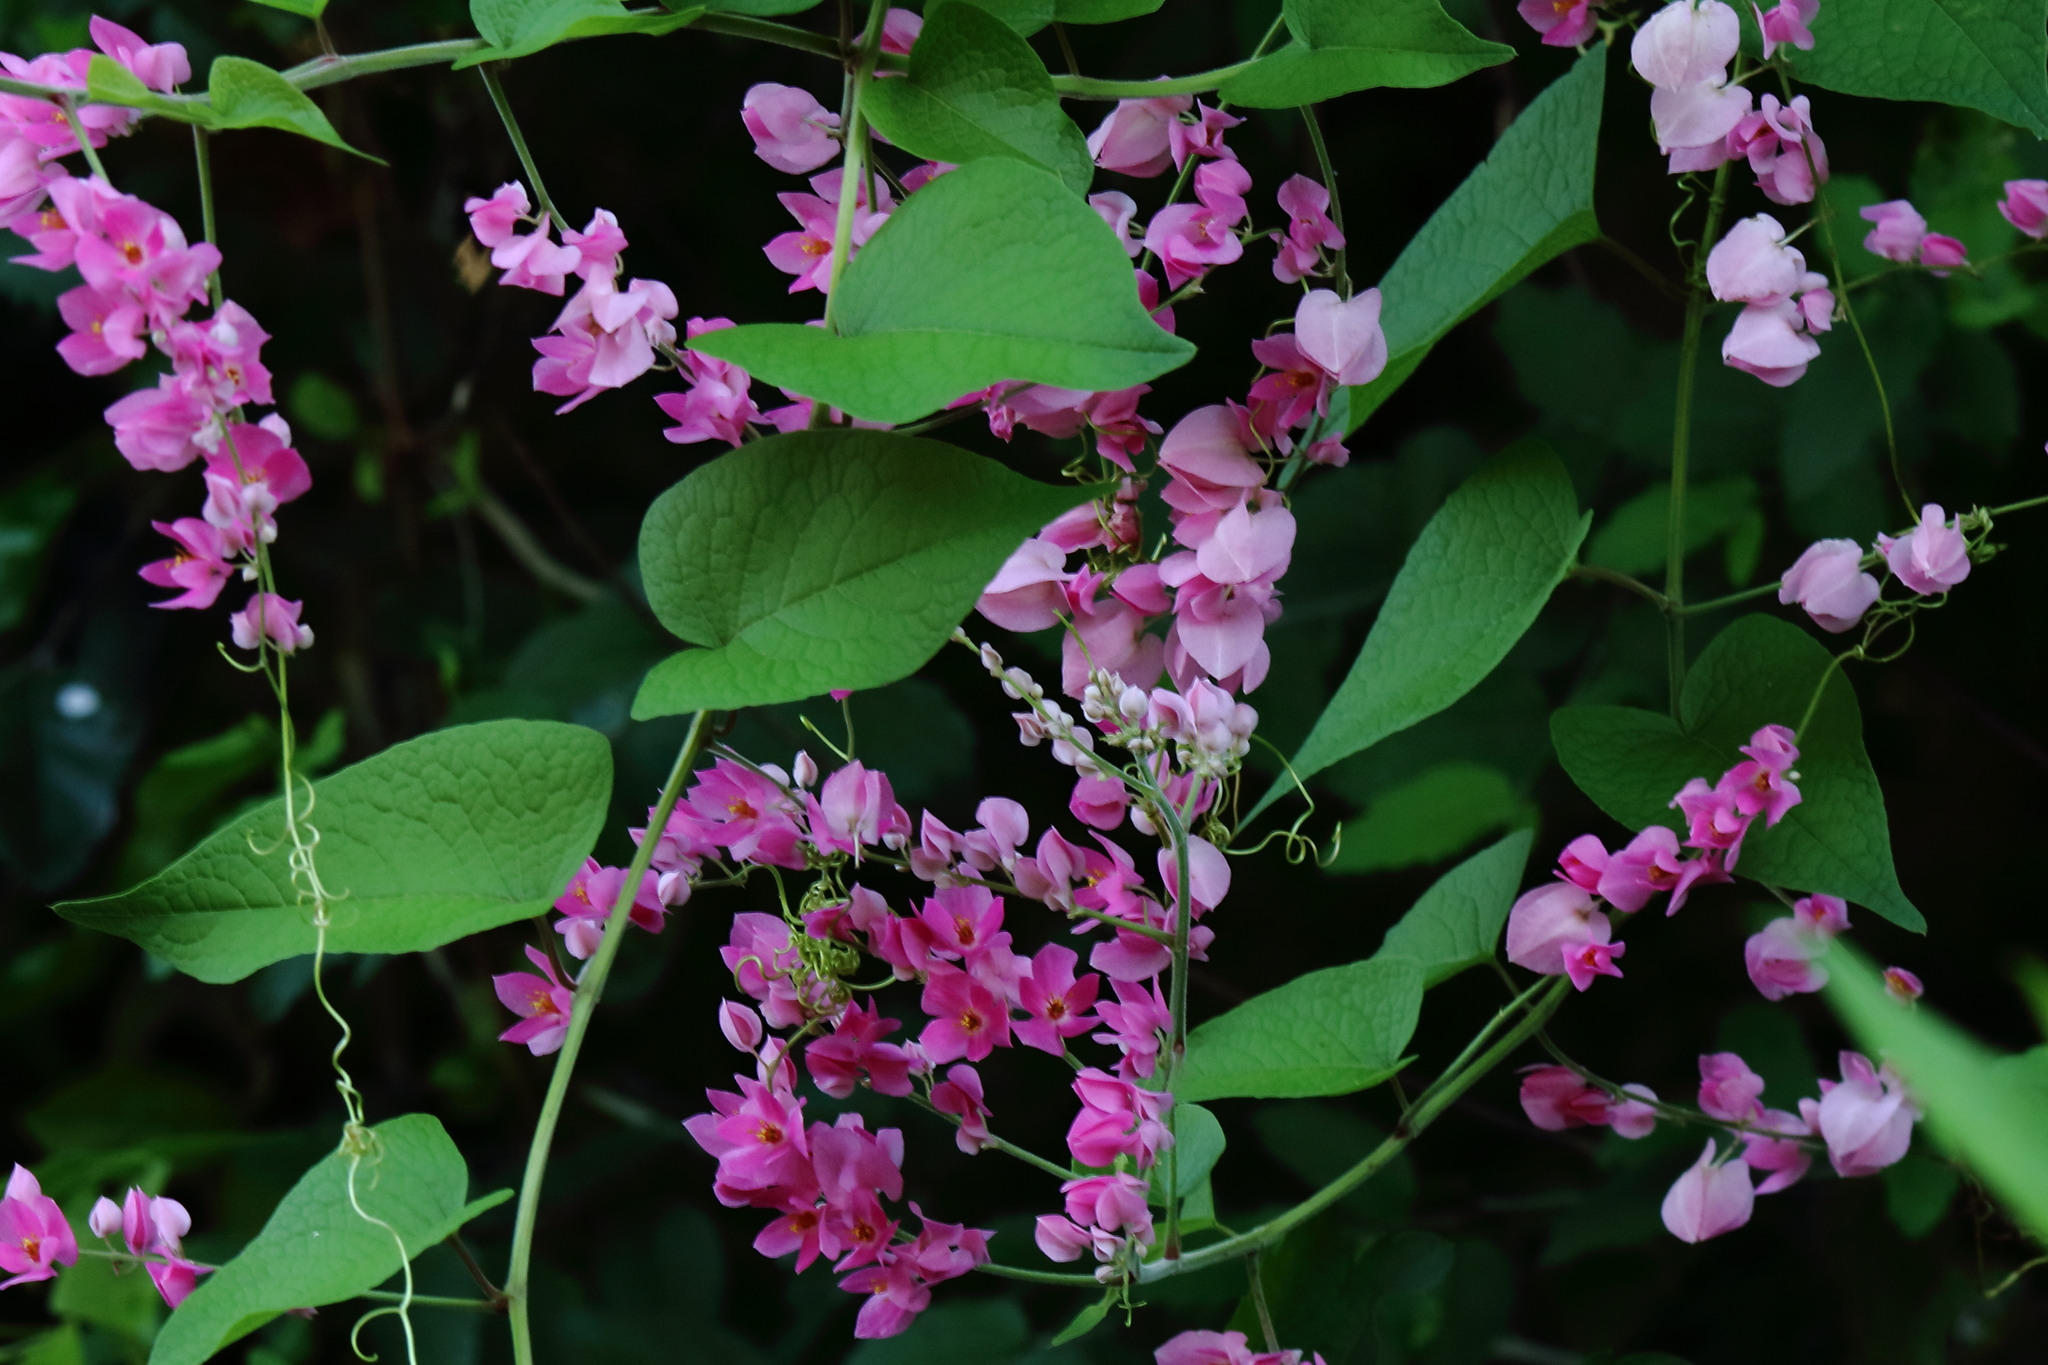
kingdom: Plantae
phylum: Tracheophyta
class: Magnoliopsida
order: Caryophyllales
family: Polygonaceae
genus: Antigonon
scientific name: Antigonon leptopus
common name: Coral vine
